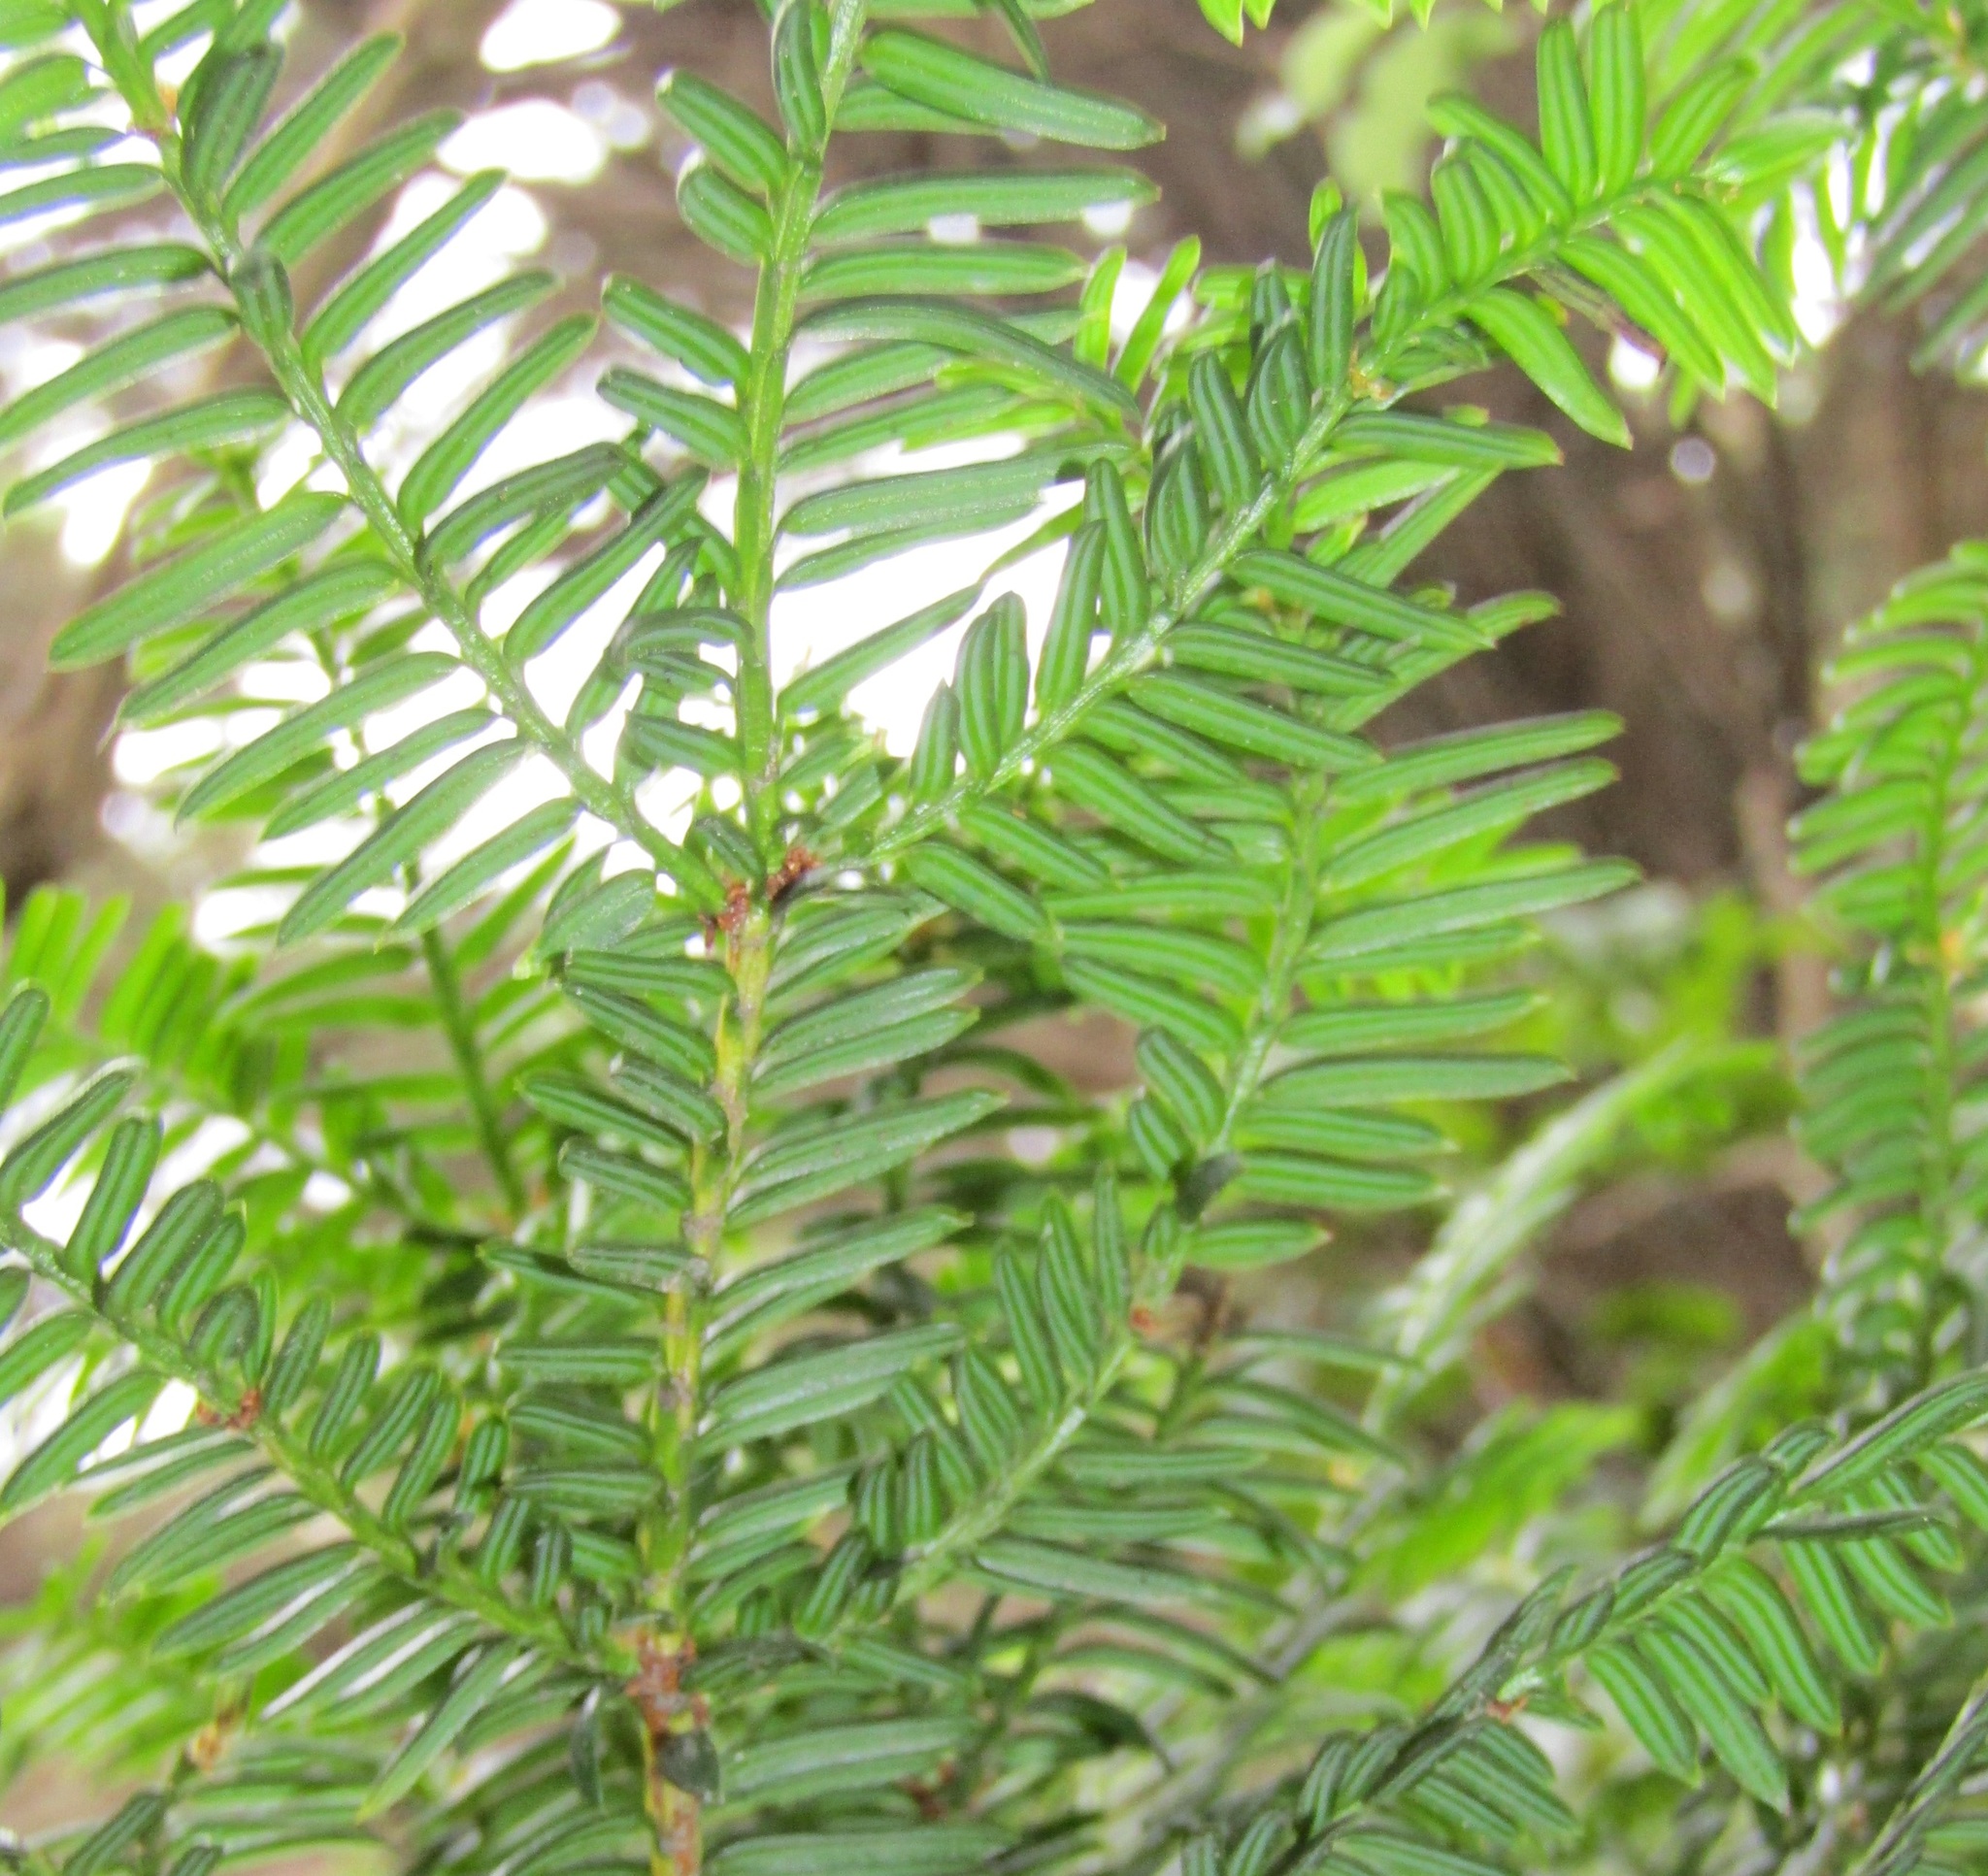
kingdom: Plantae
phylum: Tracheophyta
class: Pinopsida
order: Pinales
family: Taxaceae
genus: Taxus
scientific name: Taxus baccata
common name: Yew
